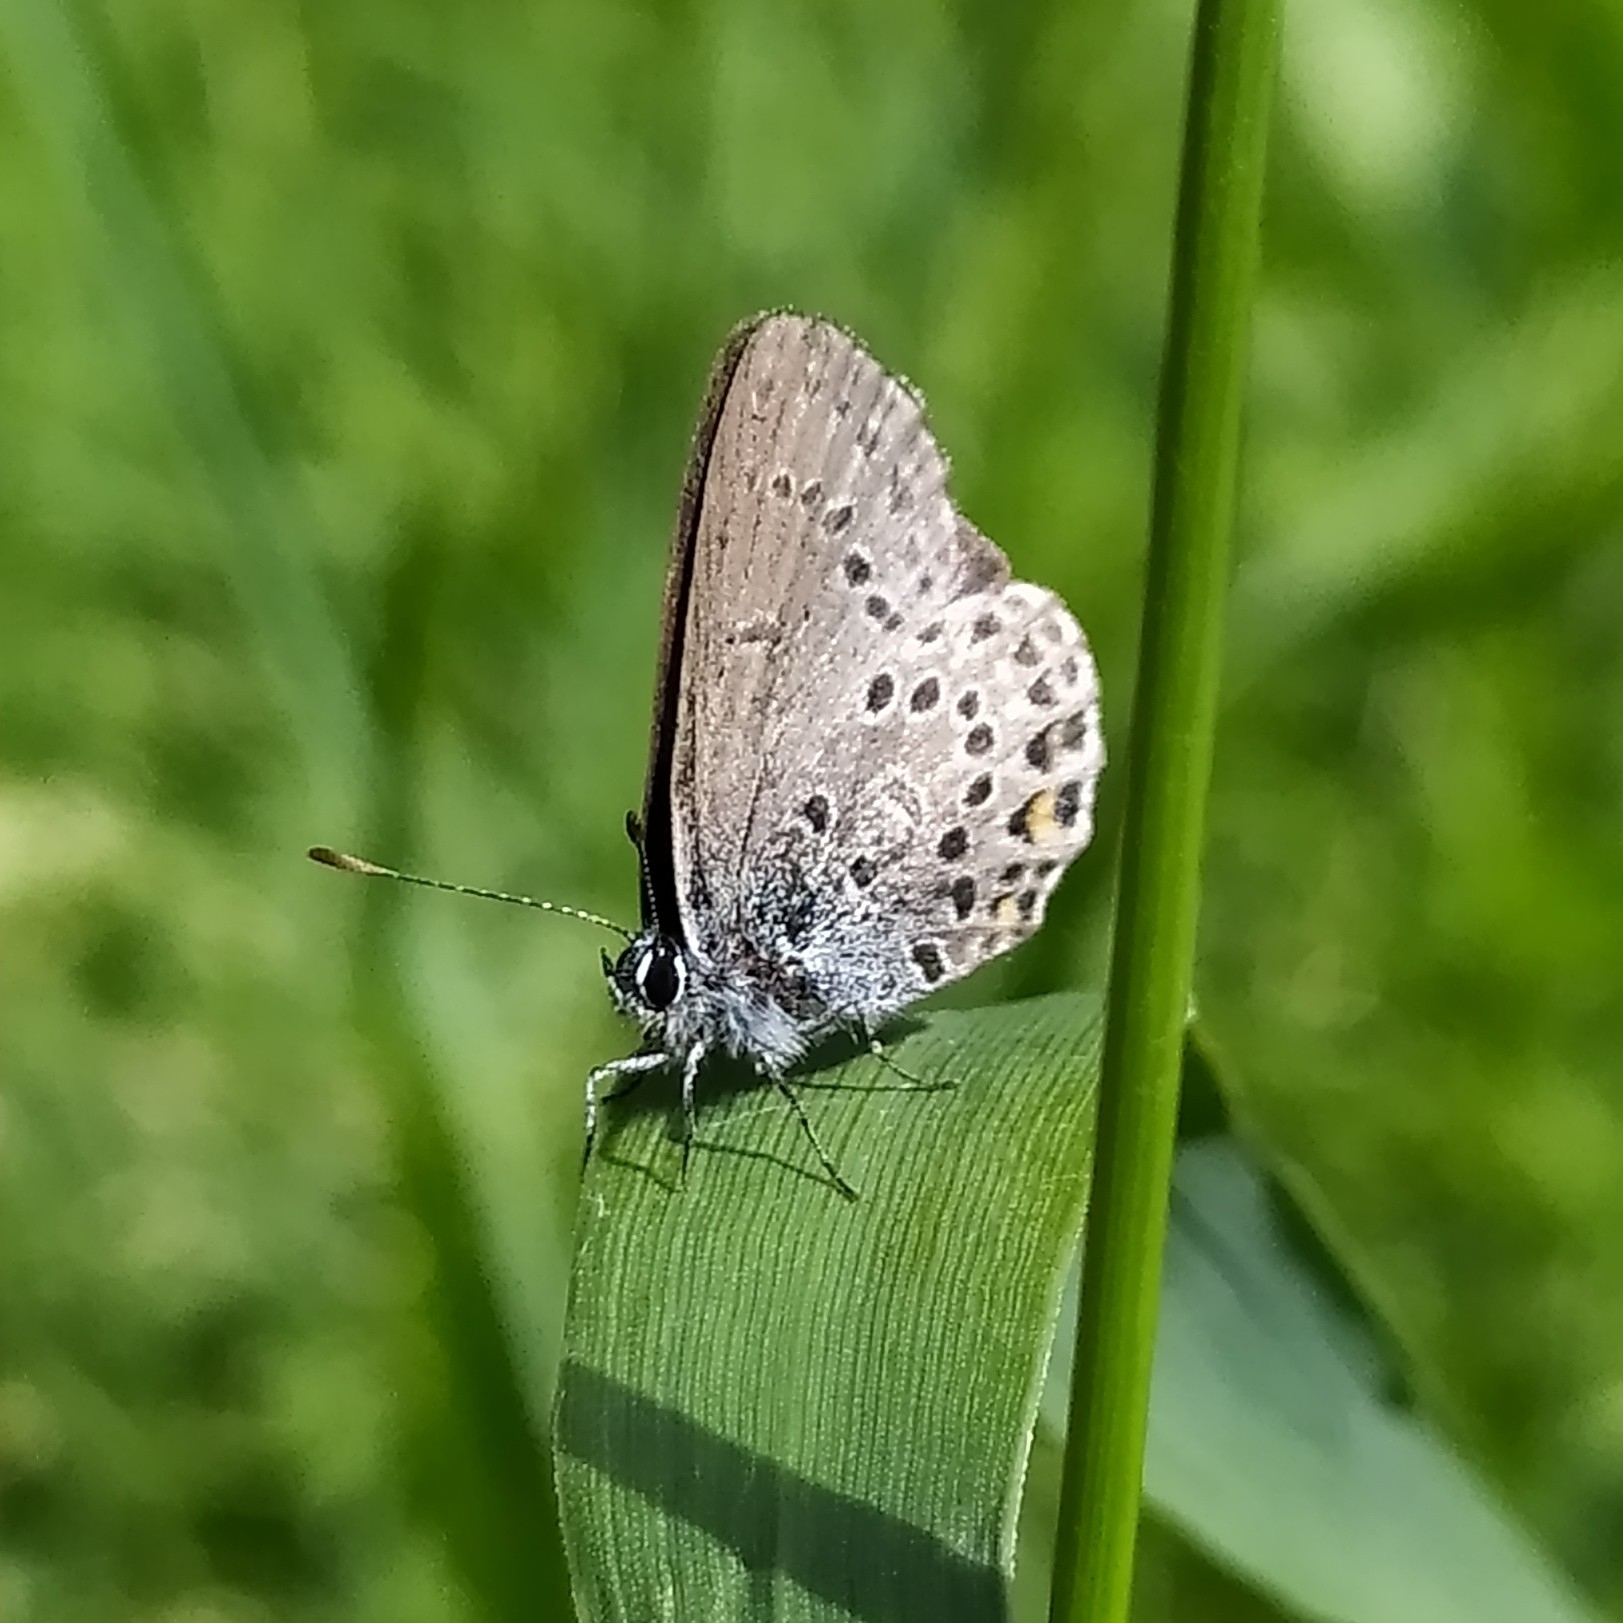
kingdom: Animalia
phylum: Arthropoda
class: Insecta
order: Lepidoptera
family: Lycaenidae
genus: Vacciniina
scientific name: Vacciniina optilete
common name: Cranberry blue
